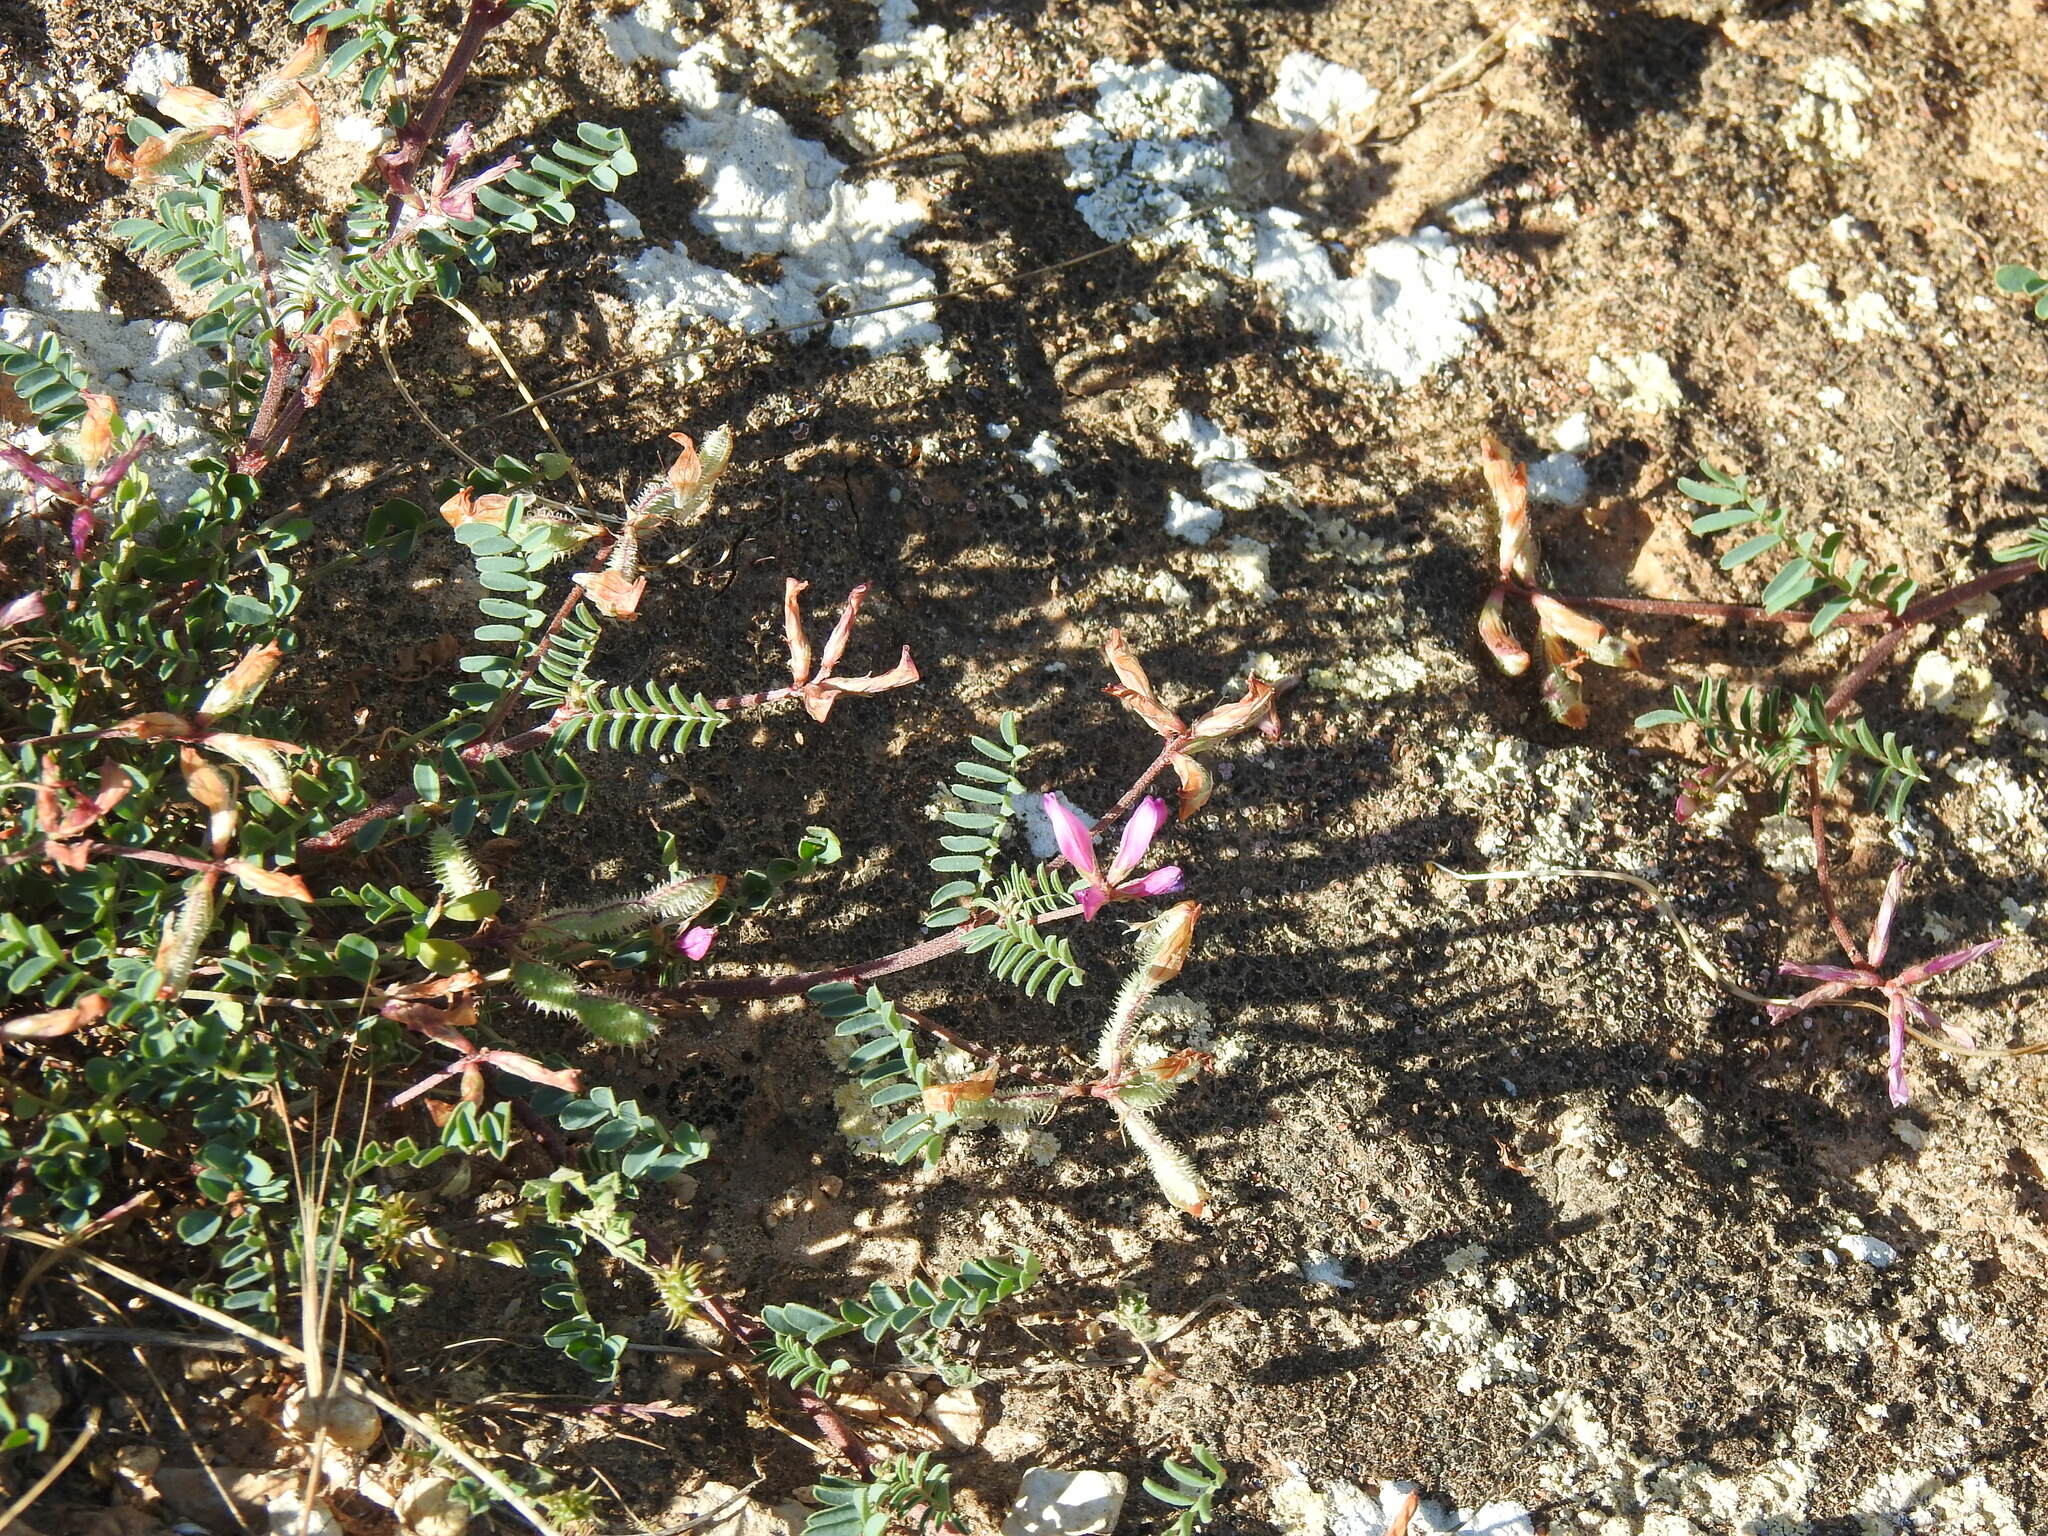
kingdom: Plantae
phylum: Tracheophyta
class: Magnoliopsida
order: Fabales
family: Fabaceae
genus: Sulla
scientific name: Sulla glomerata
